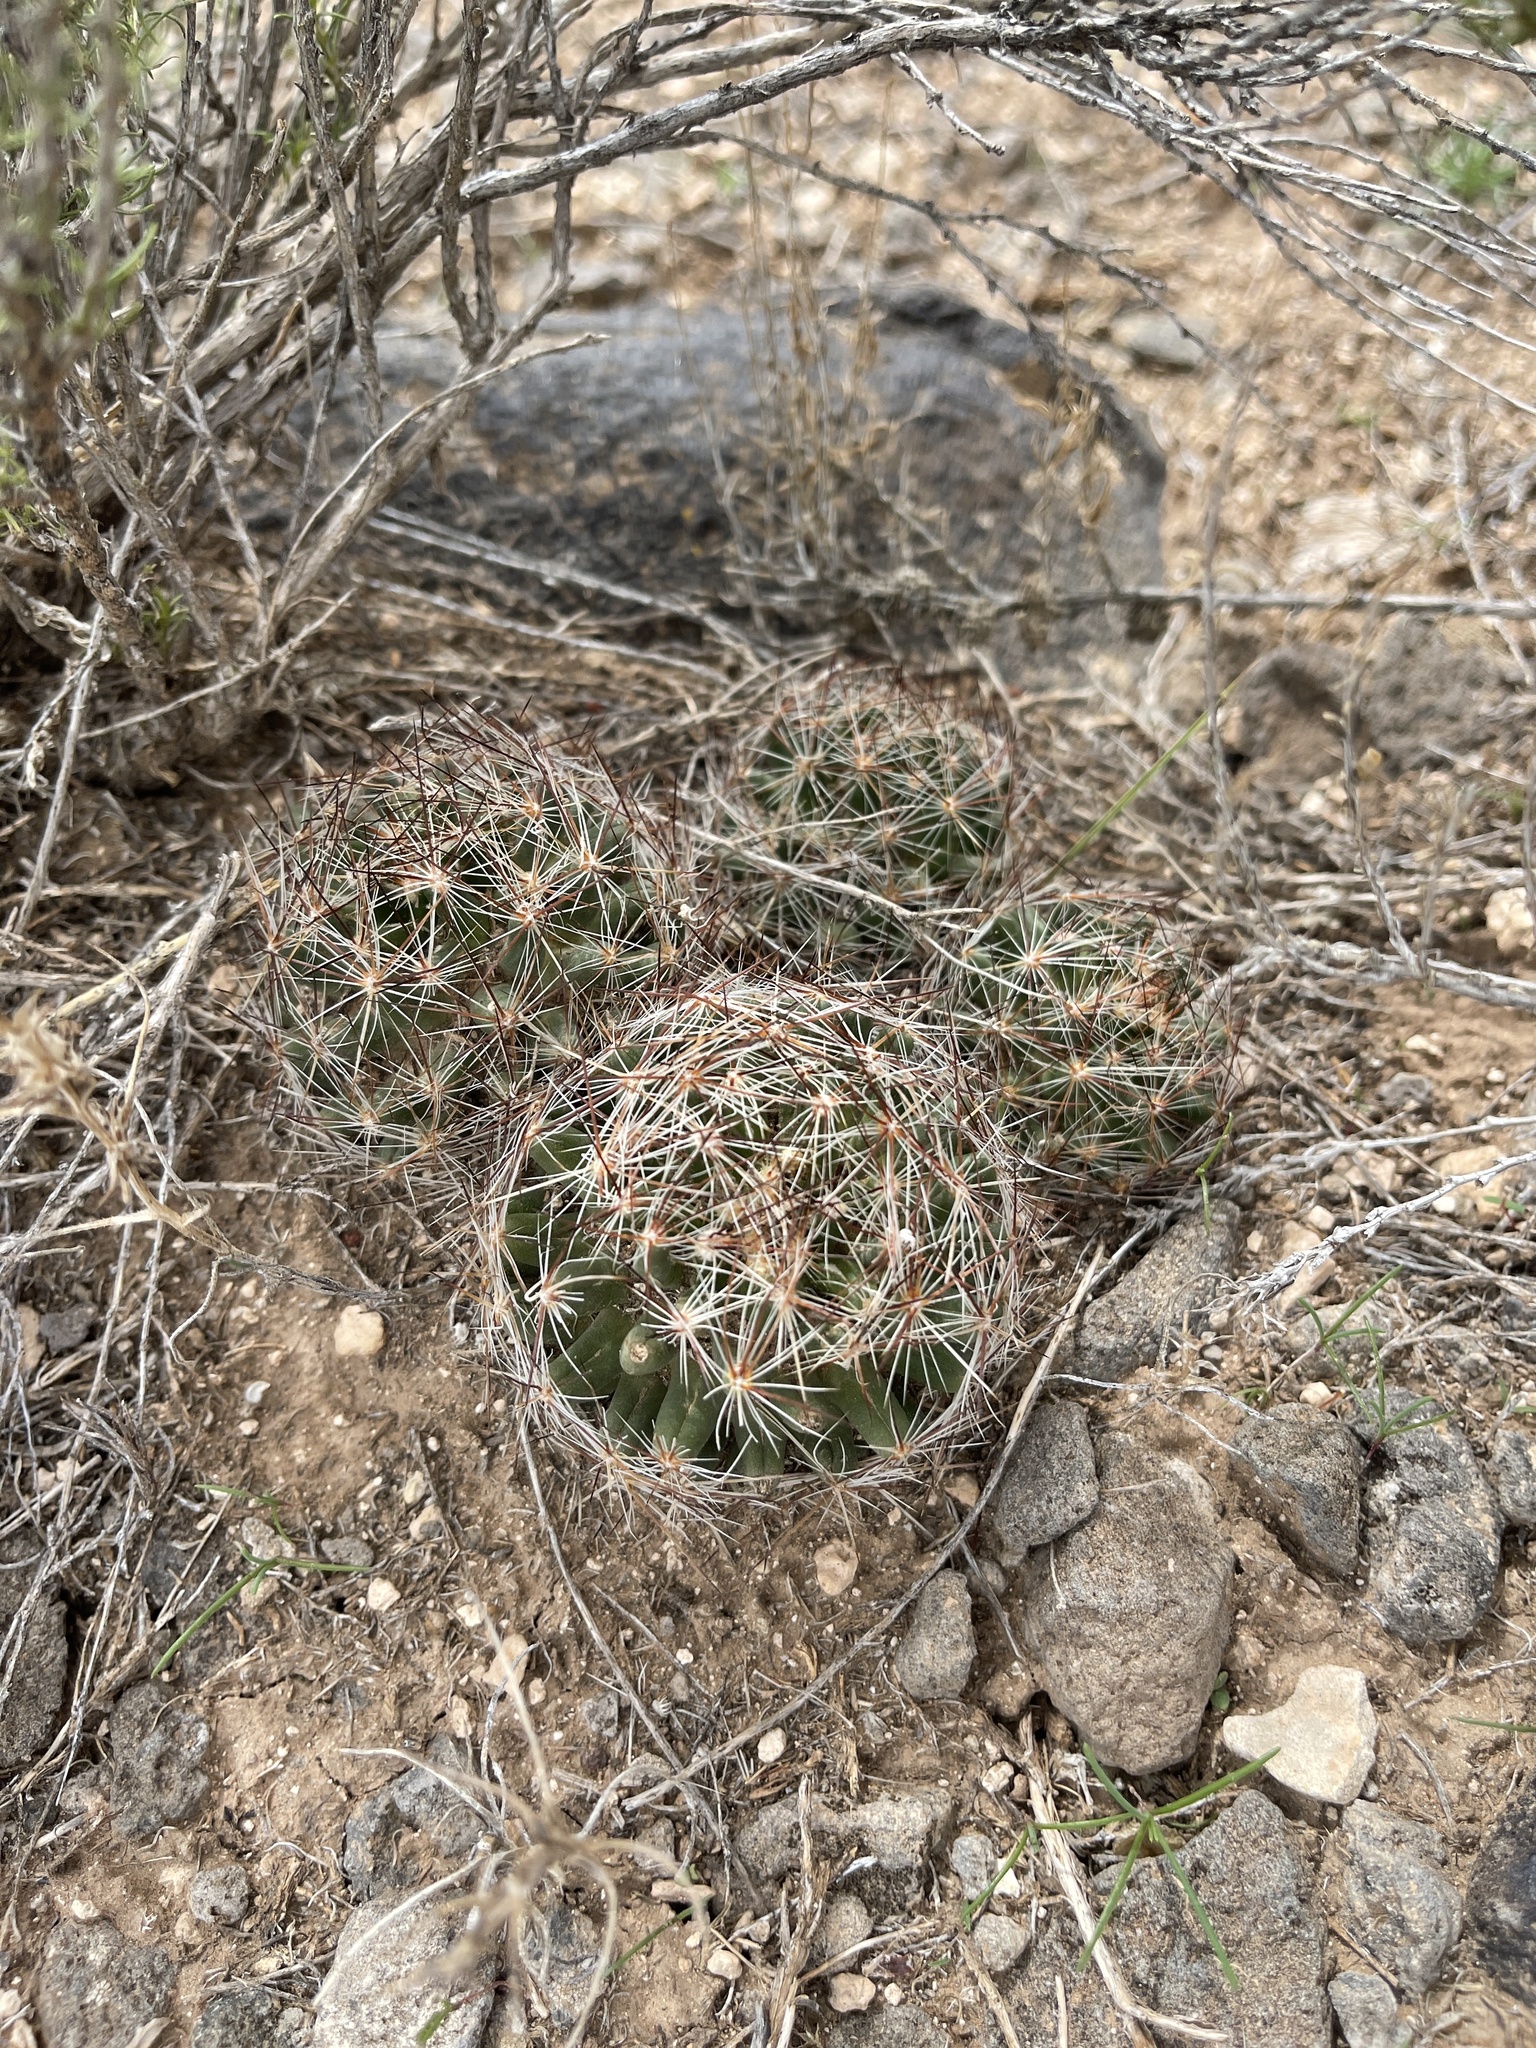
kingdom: Plantae
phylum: Tracheophyta
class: Magnoliopsida
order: Caryophyllales
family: Cactaceae
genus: Pelecyphora
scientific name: Pelecyphora vivipara
